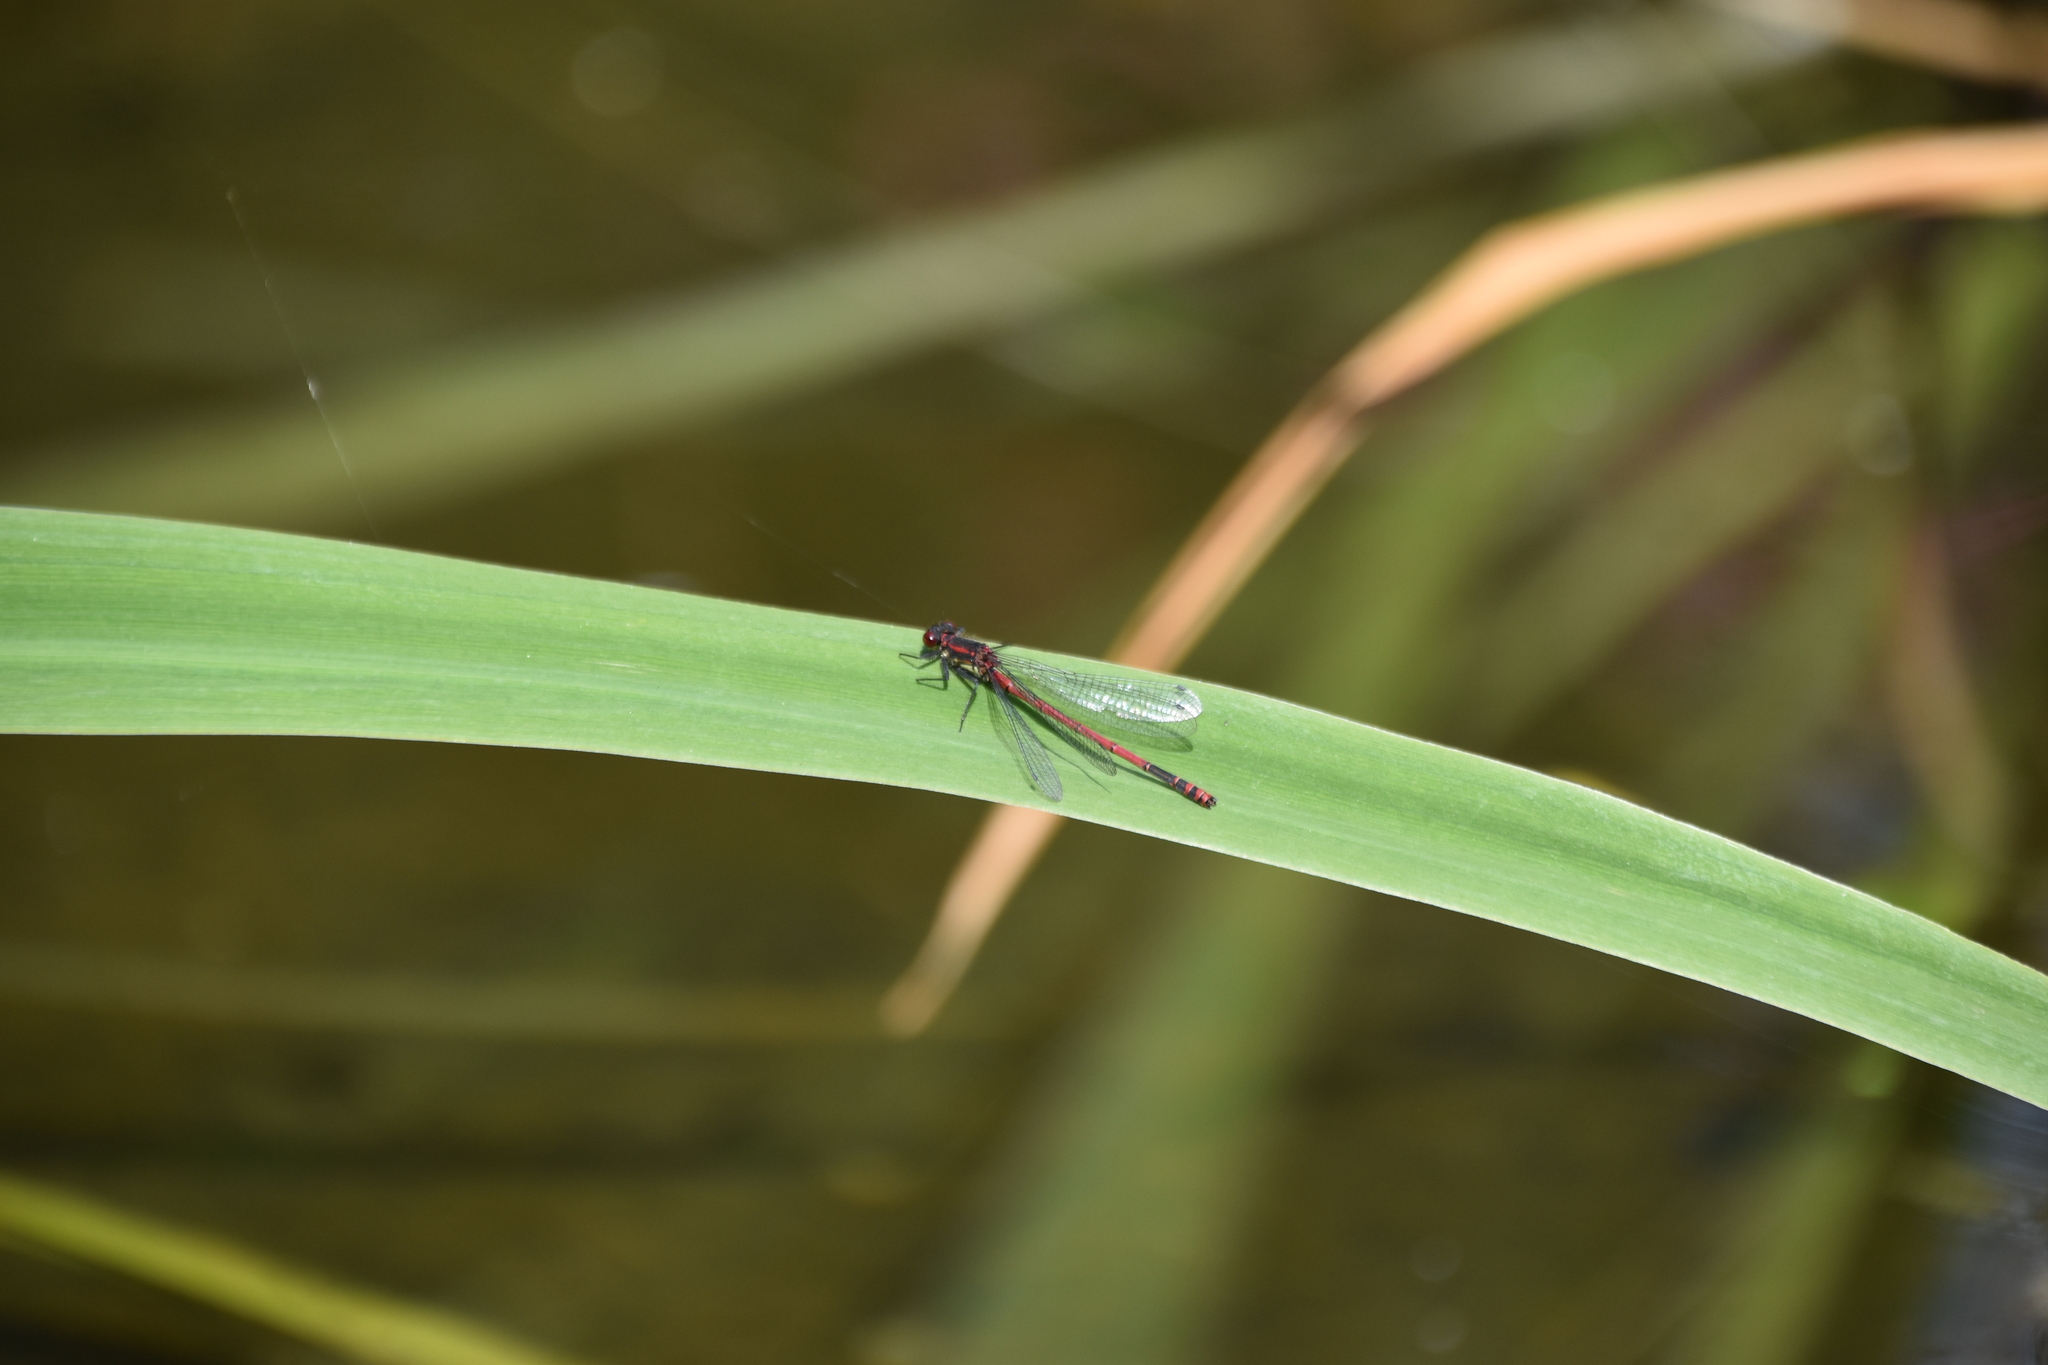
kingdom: Animalia
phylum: Arthropoda
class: Insecta
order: Odonata
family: Coenagrionidae
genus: Pyrrhosoma
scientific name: Pyrrhosoma nymphula
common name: Large red damsel
